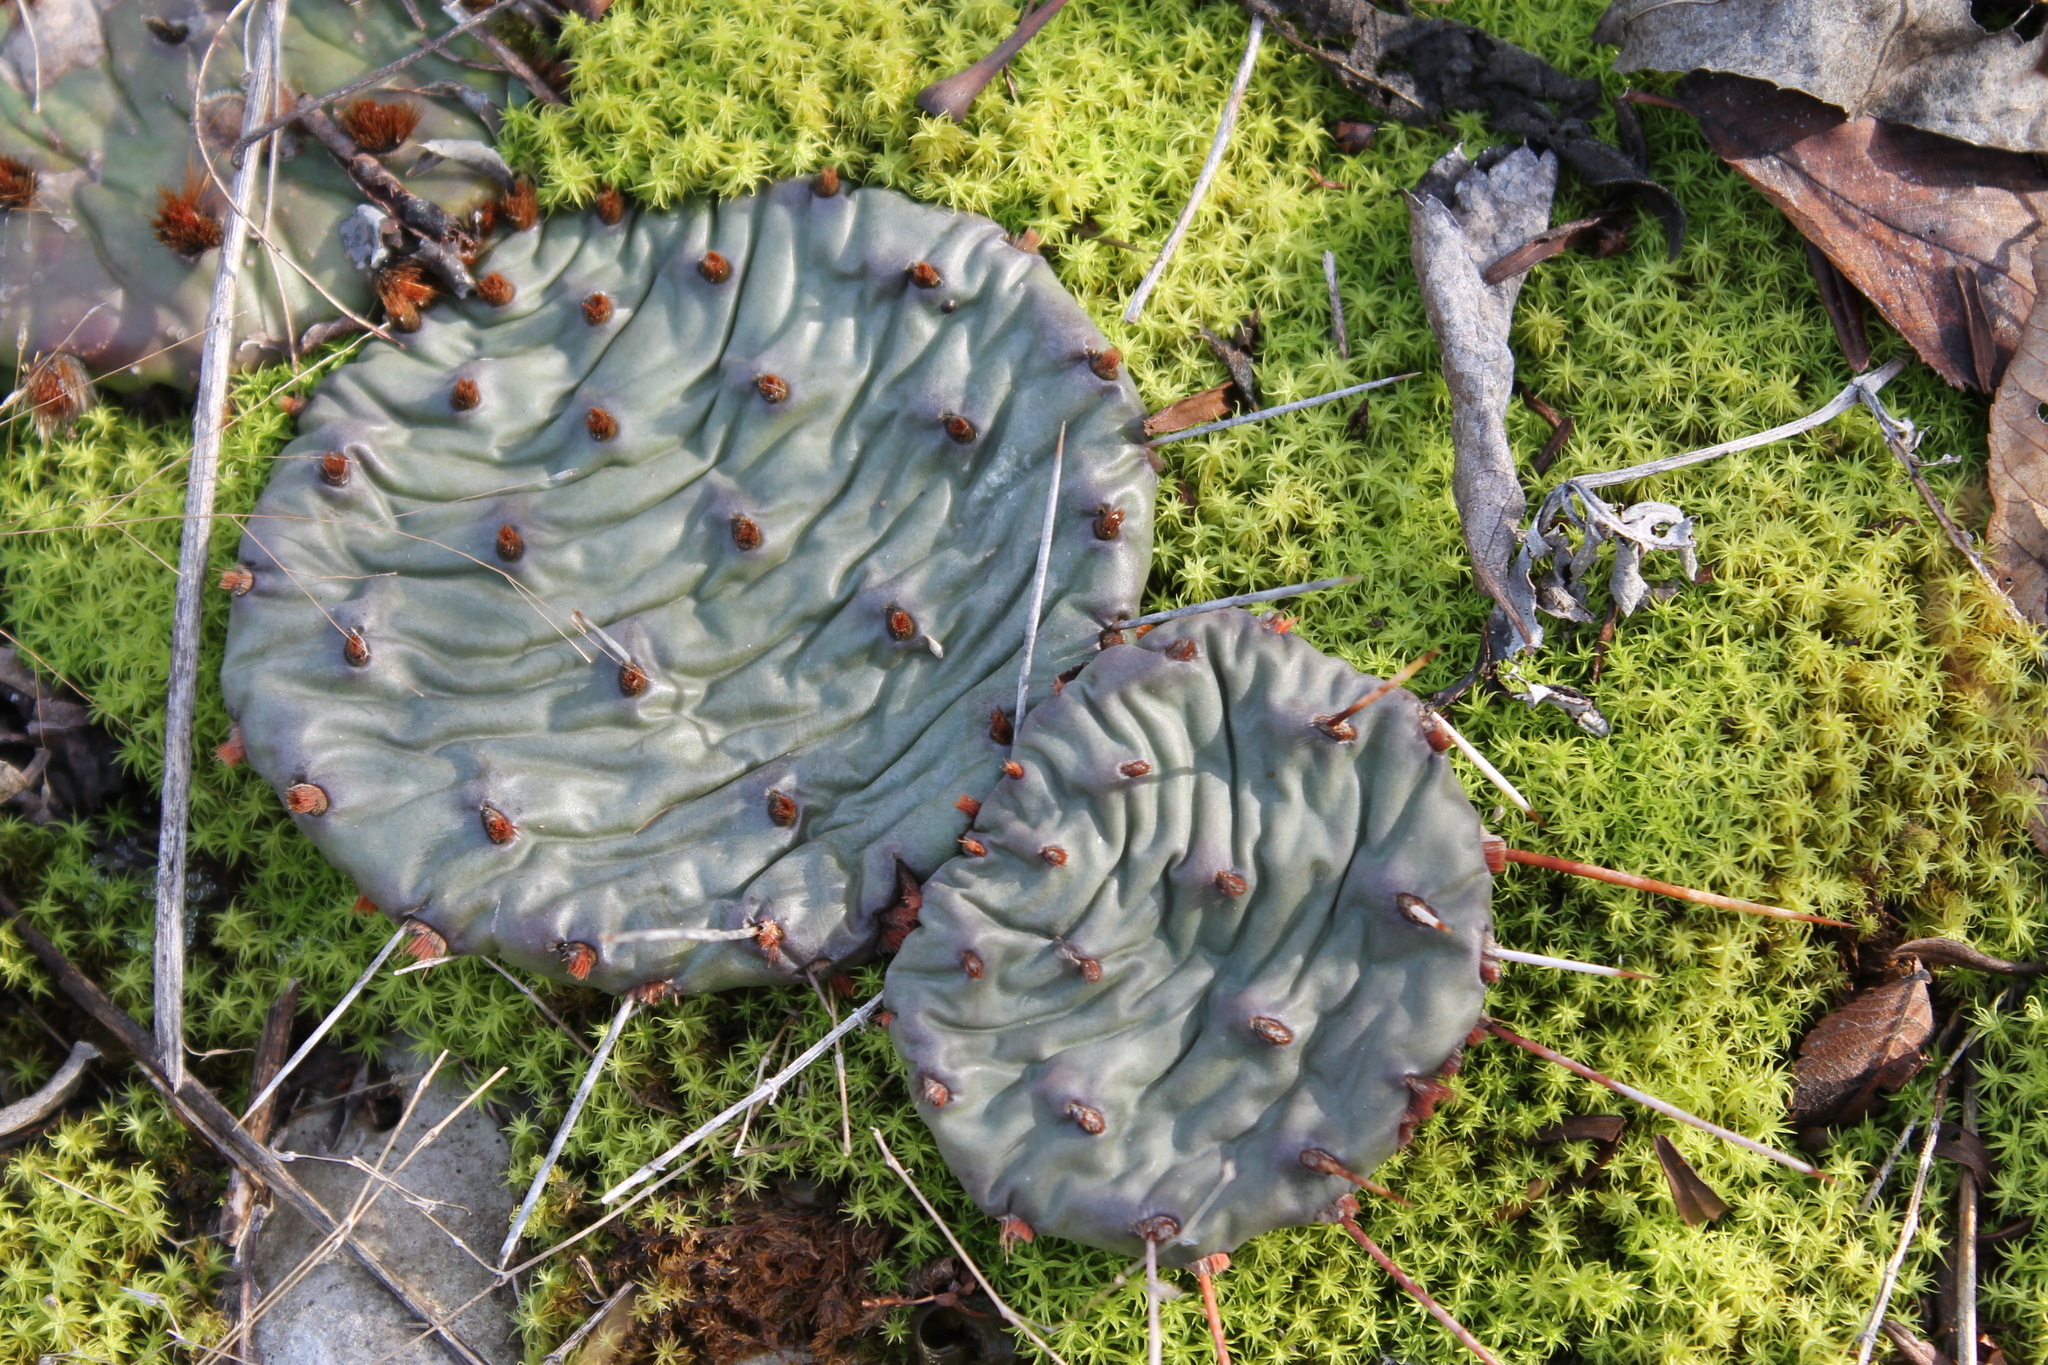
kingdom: Plantae
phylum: Tracheophyta
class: Magnoliopsida
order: Caryophyllales
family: Cactaceae
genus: Opuntia
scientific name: Opuntia humifusa
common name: Eastern prickly-pear
